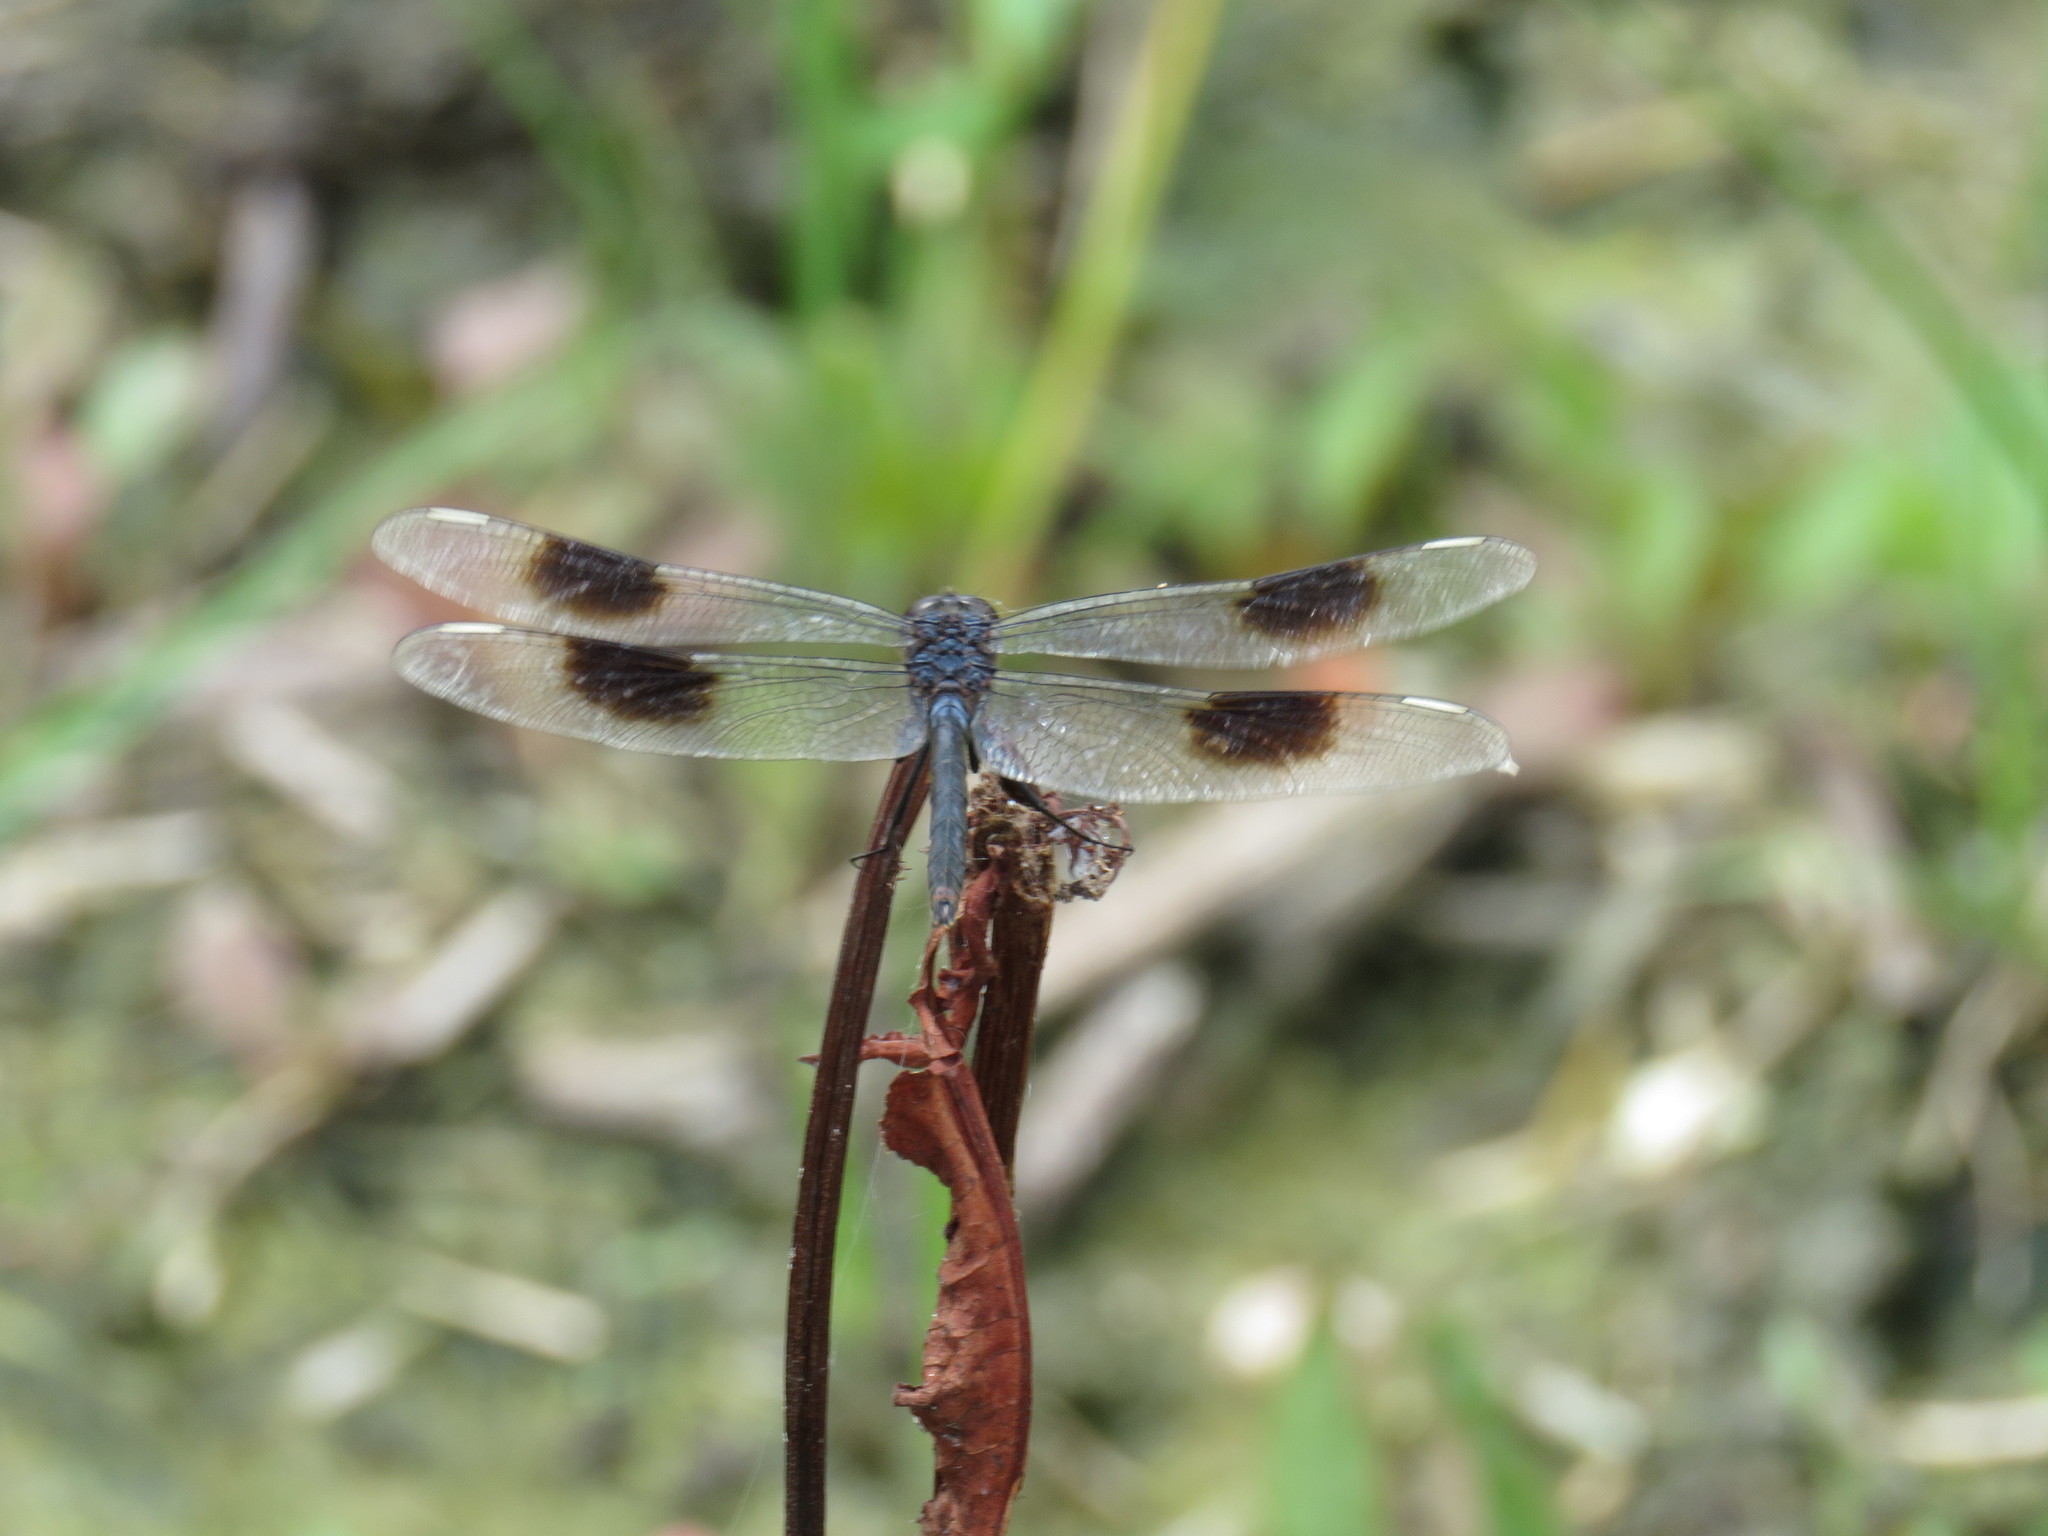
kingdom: Animalia
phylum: Arthropoda
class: Insecta
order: Odonata
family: Libellulidae
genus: Brachymesia
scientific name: Brachymesia gravida
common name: Four-spotted pennant
